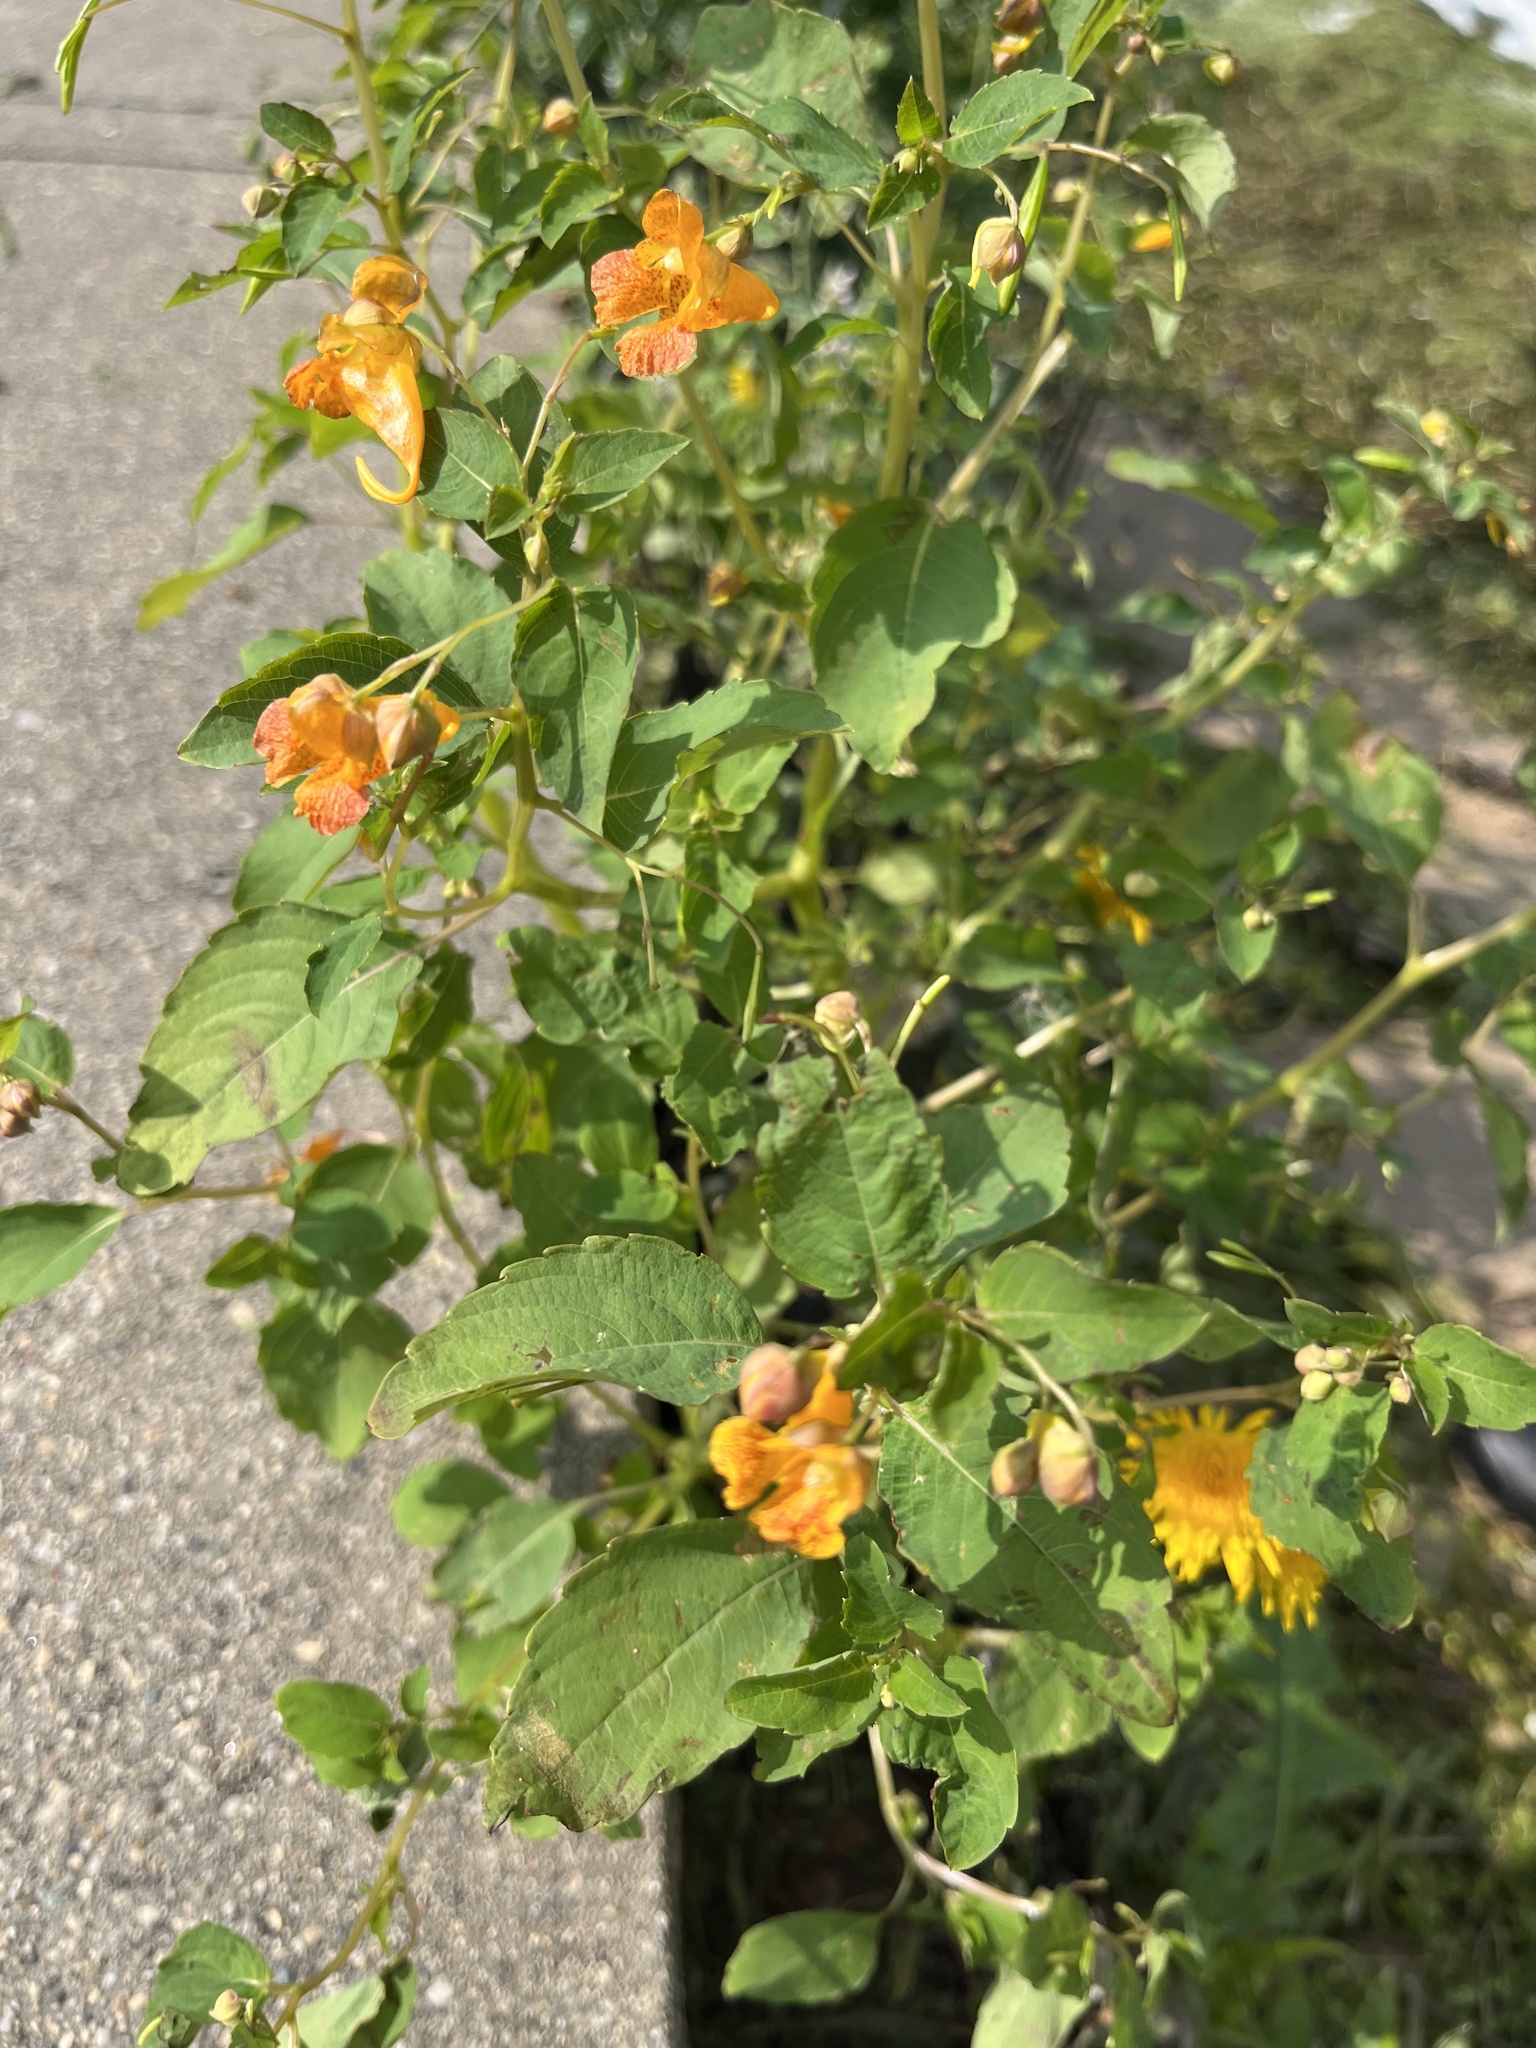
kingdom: Plantae
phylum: Tracheophyta
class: Magnoliopsida
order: Ericales
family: Balsaminaceae
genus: Impatiens
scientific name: Impatiens capensis
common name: Orange balsam
